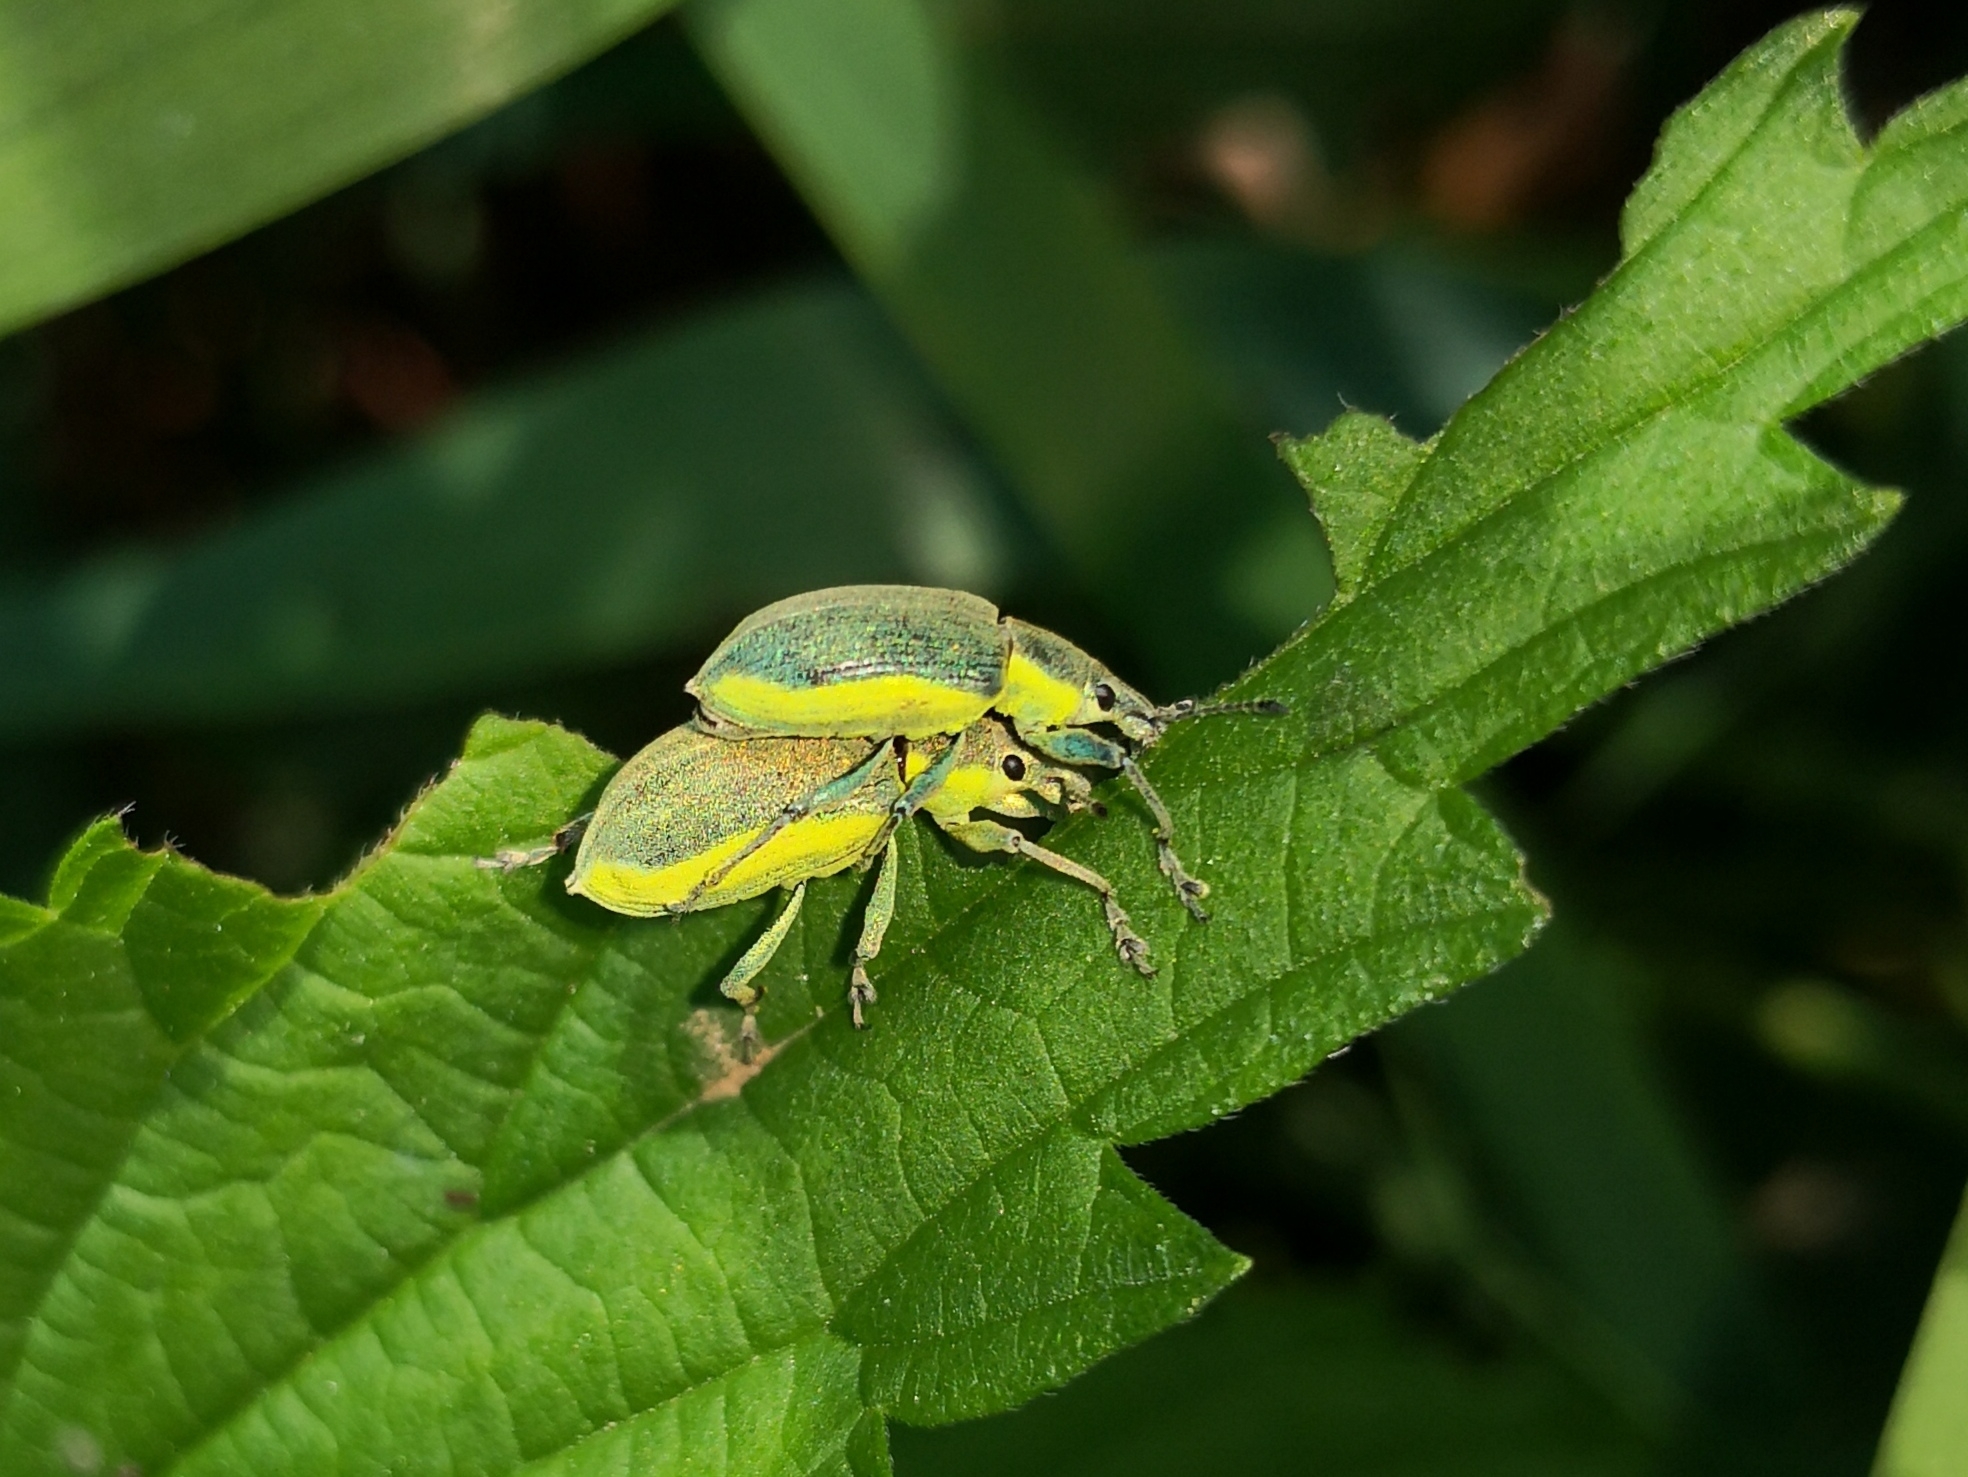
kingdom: Animalia
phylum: Arthropoda
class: Insecta
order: Coleoptera
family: Curculionidae
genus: Chlorophanus
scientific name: Chlorophanus viridis
